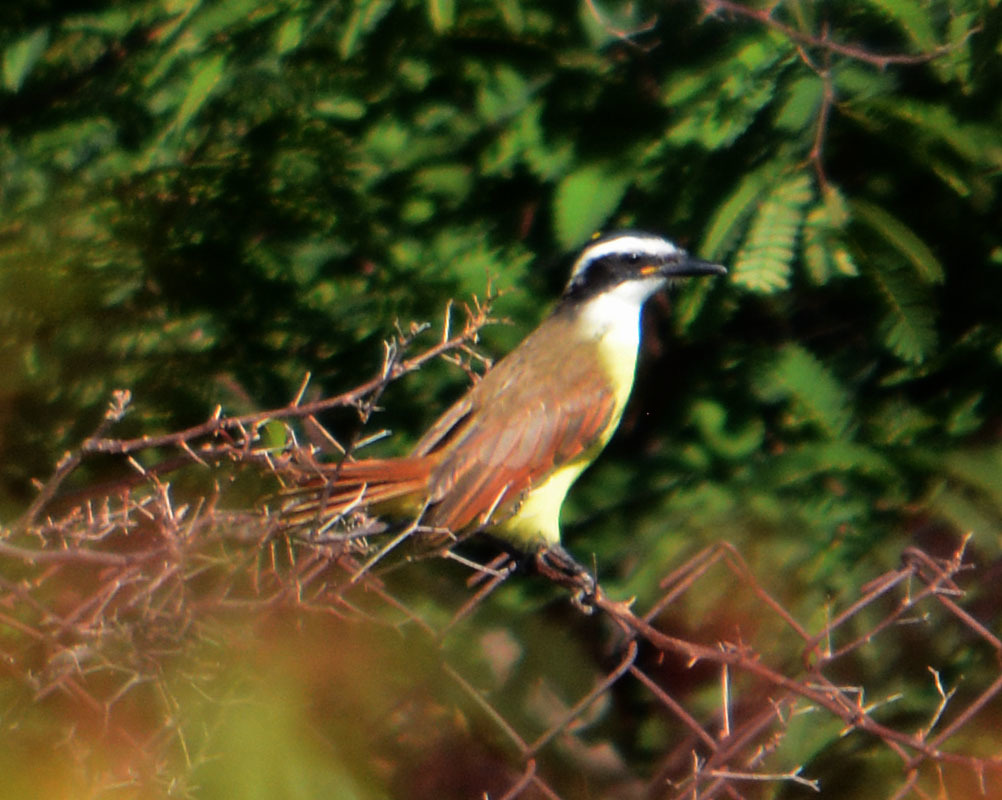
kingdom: Animalia
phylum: Chordata
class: Aves
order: Passeriformes
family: Tyrannidae
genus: Pitangus
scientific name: Pitangus sulphuratus
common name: Great kiskadee
